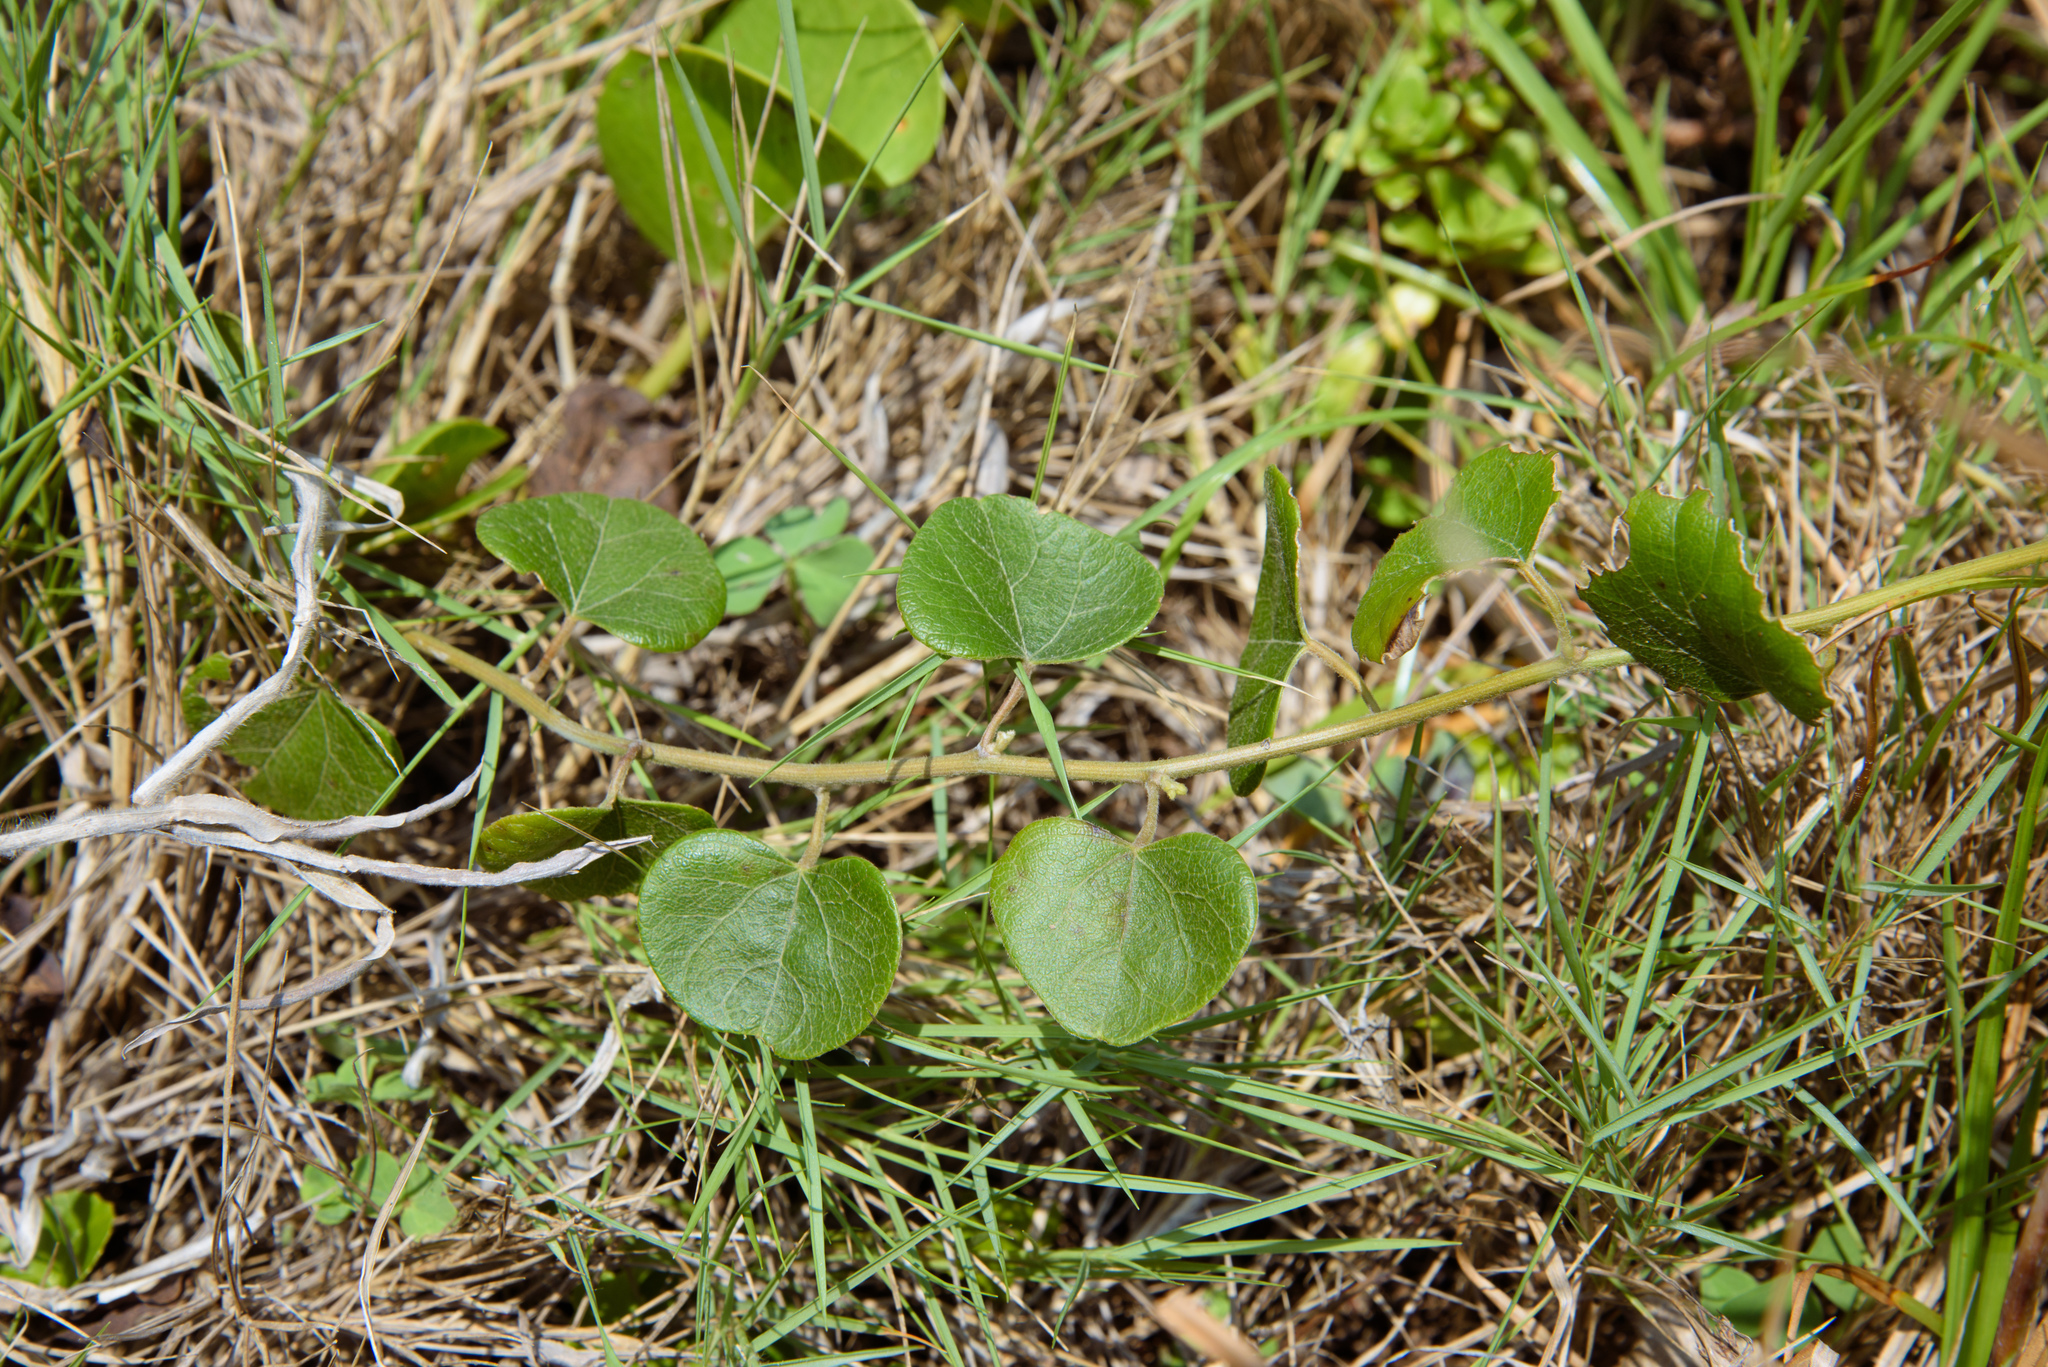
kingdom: Plantae
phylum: Tracheophyta
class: Magnoliopsida
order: Ranunculales
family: Menispermaceae
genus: Cocculus
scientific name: Cocculus orbiculatus
